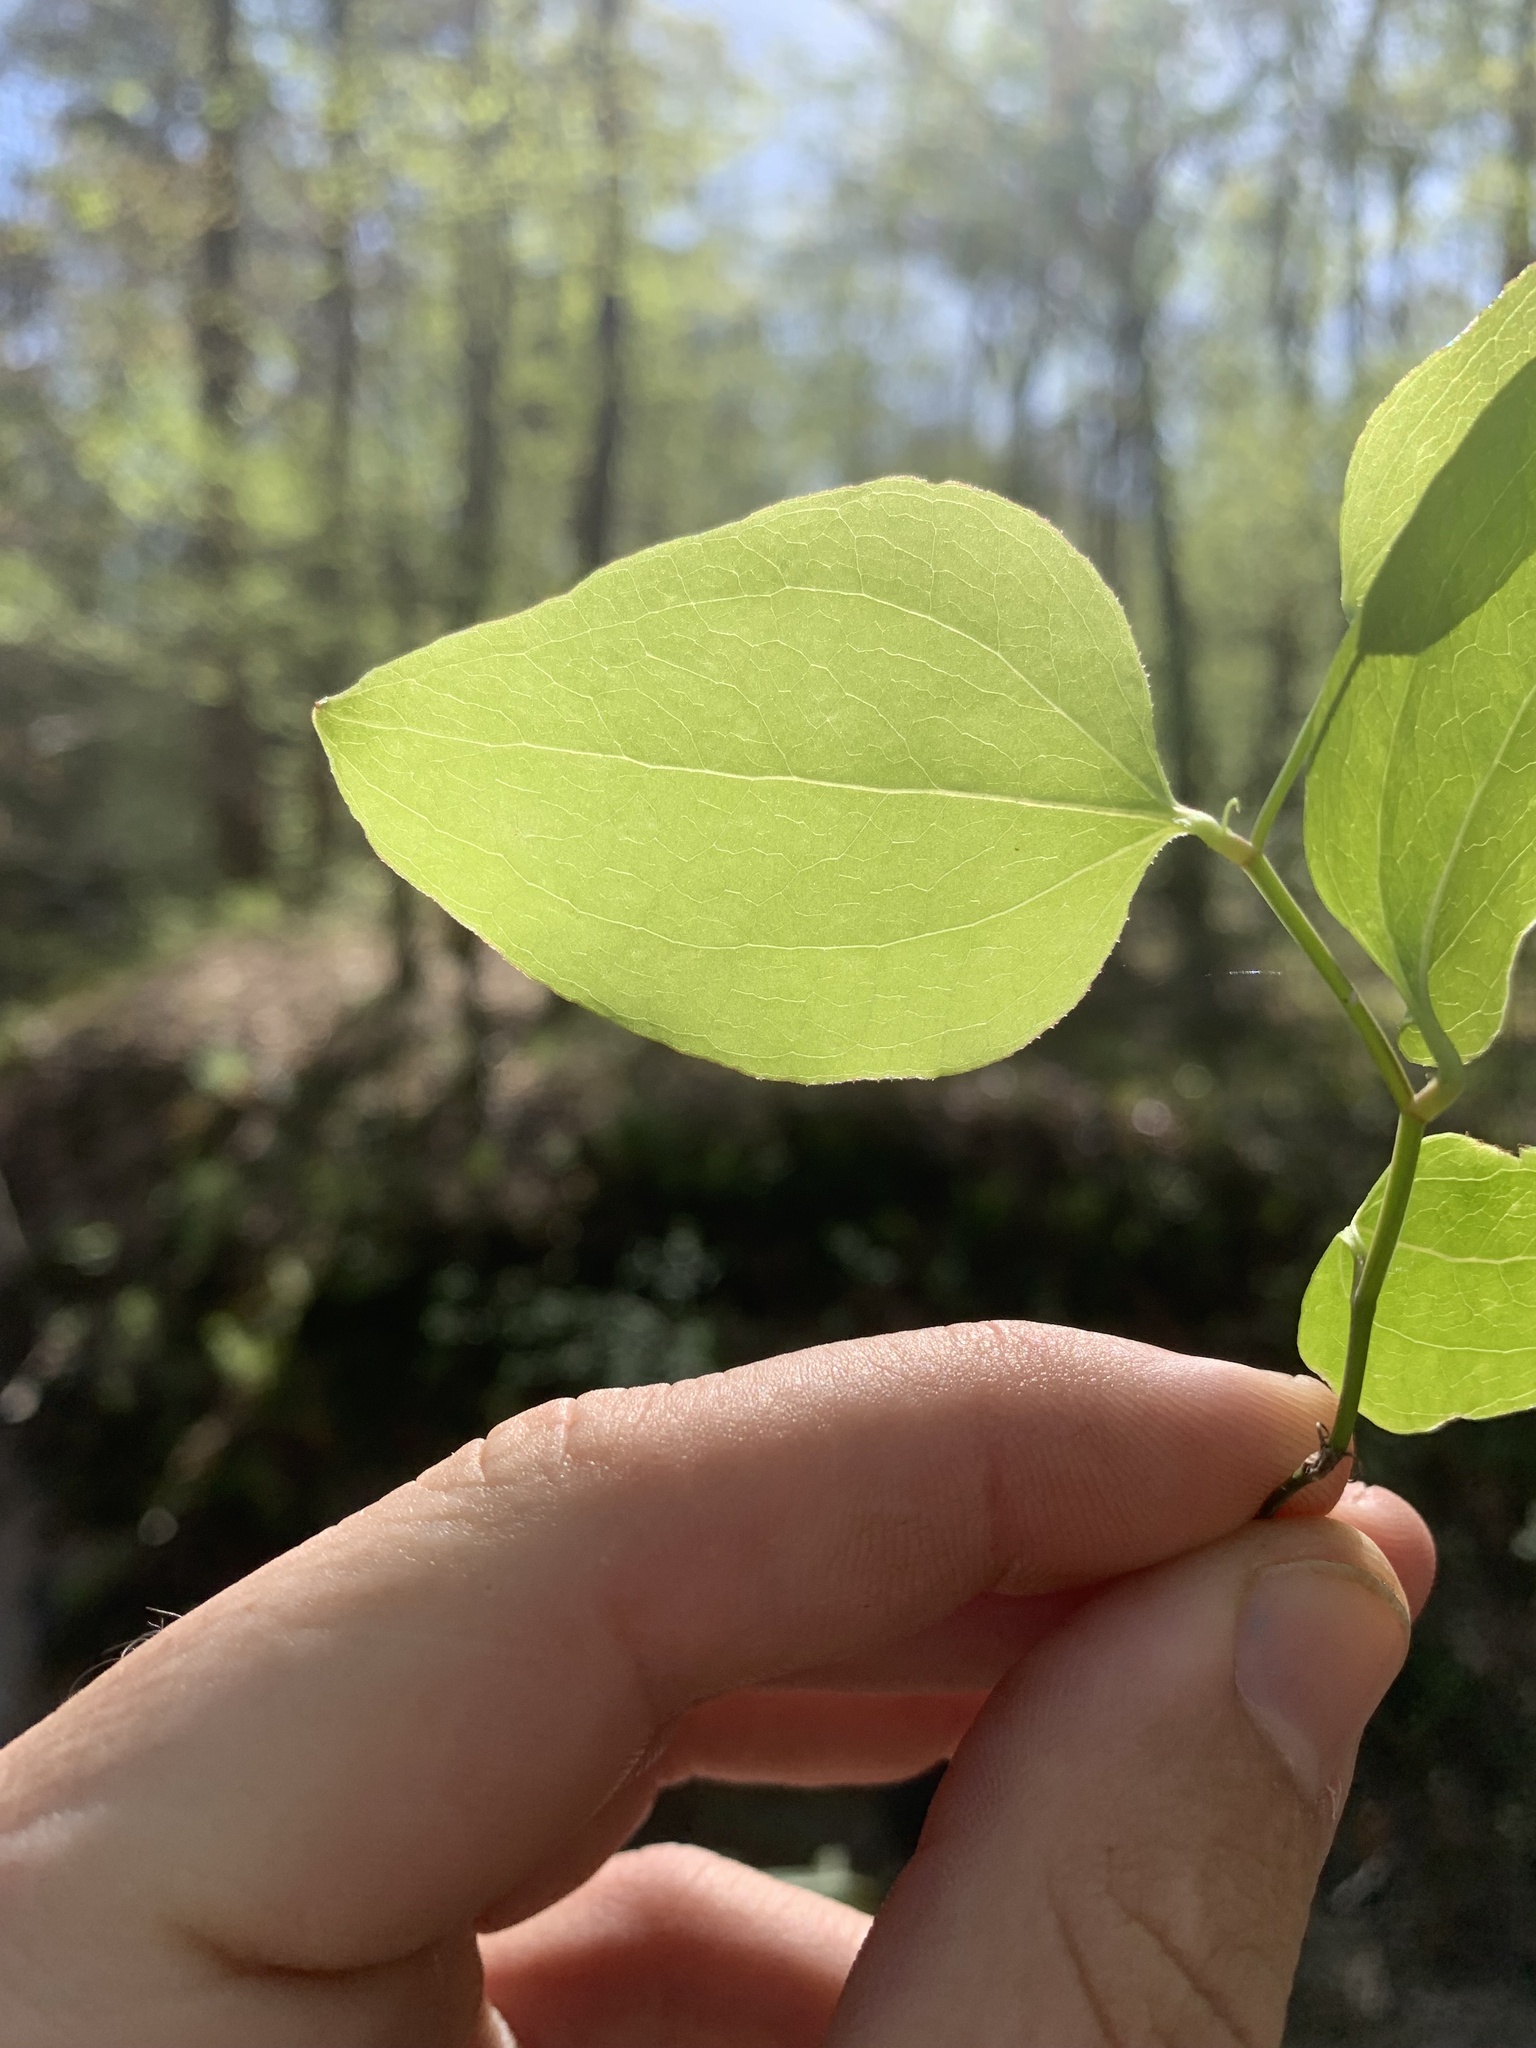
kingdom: Plantae
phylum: Tracheophyta
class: Liliopsida
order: Liliales
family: Smilacaceae
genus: Smilax
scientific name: Smilax rotundifolia
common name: Bullbriar
